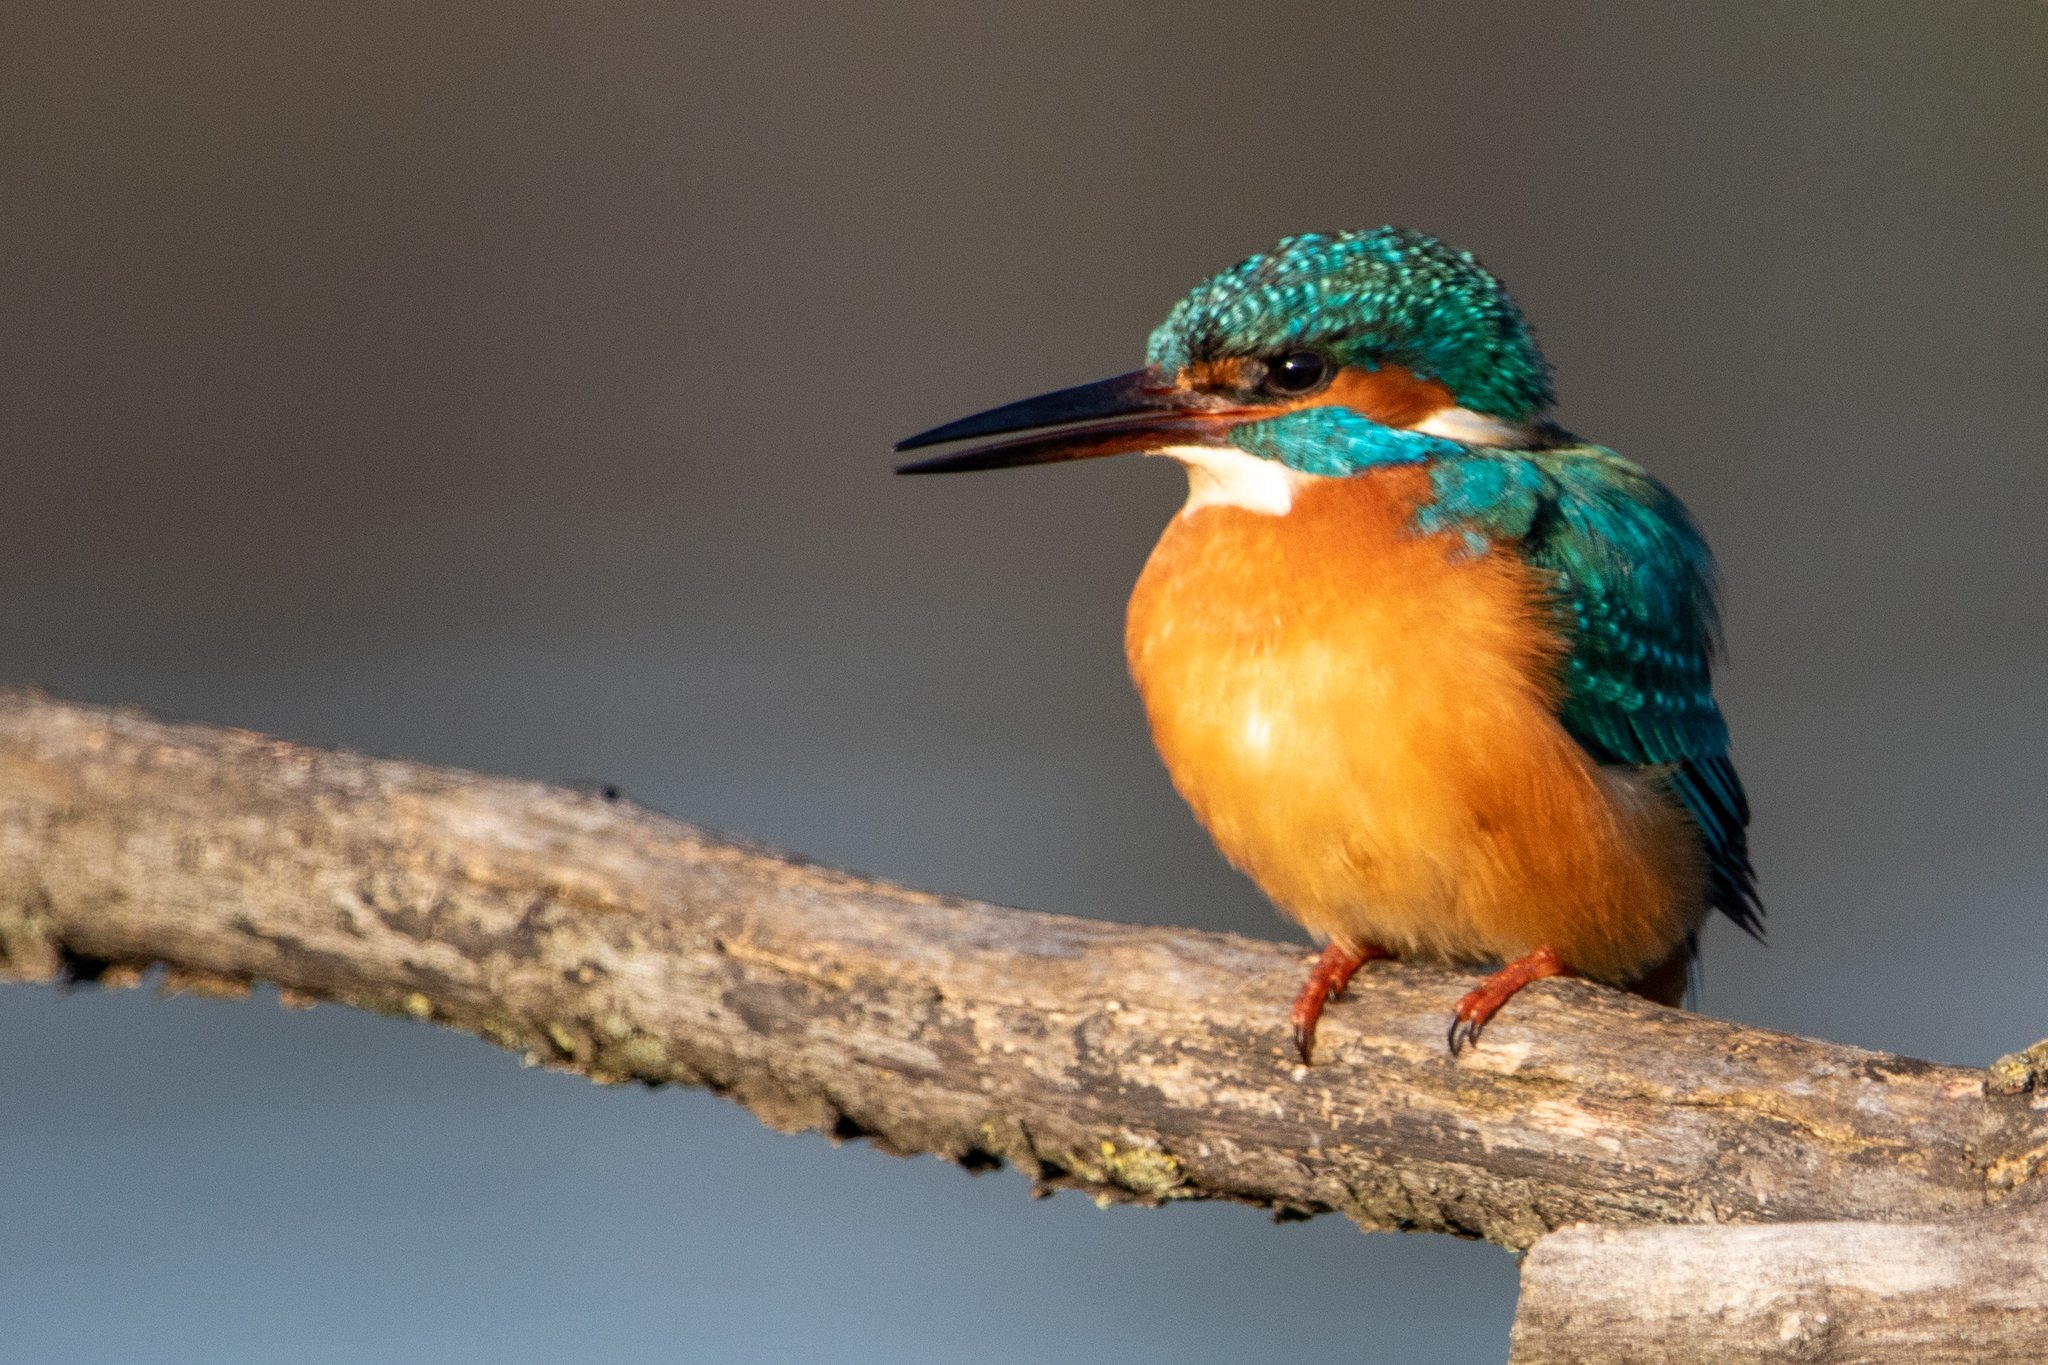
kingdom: Animalia
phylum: Chordata
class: Aves
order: Coraciiformes
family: Alcedinidae
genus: Alcedo
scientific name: Alcedo atthis
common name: Common kingfisher
